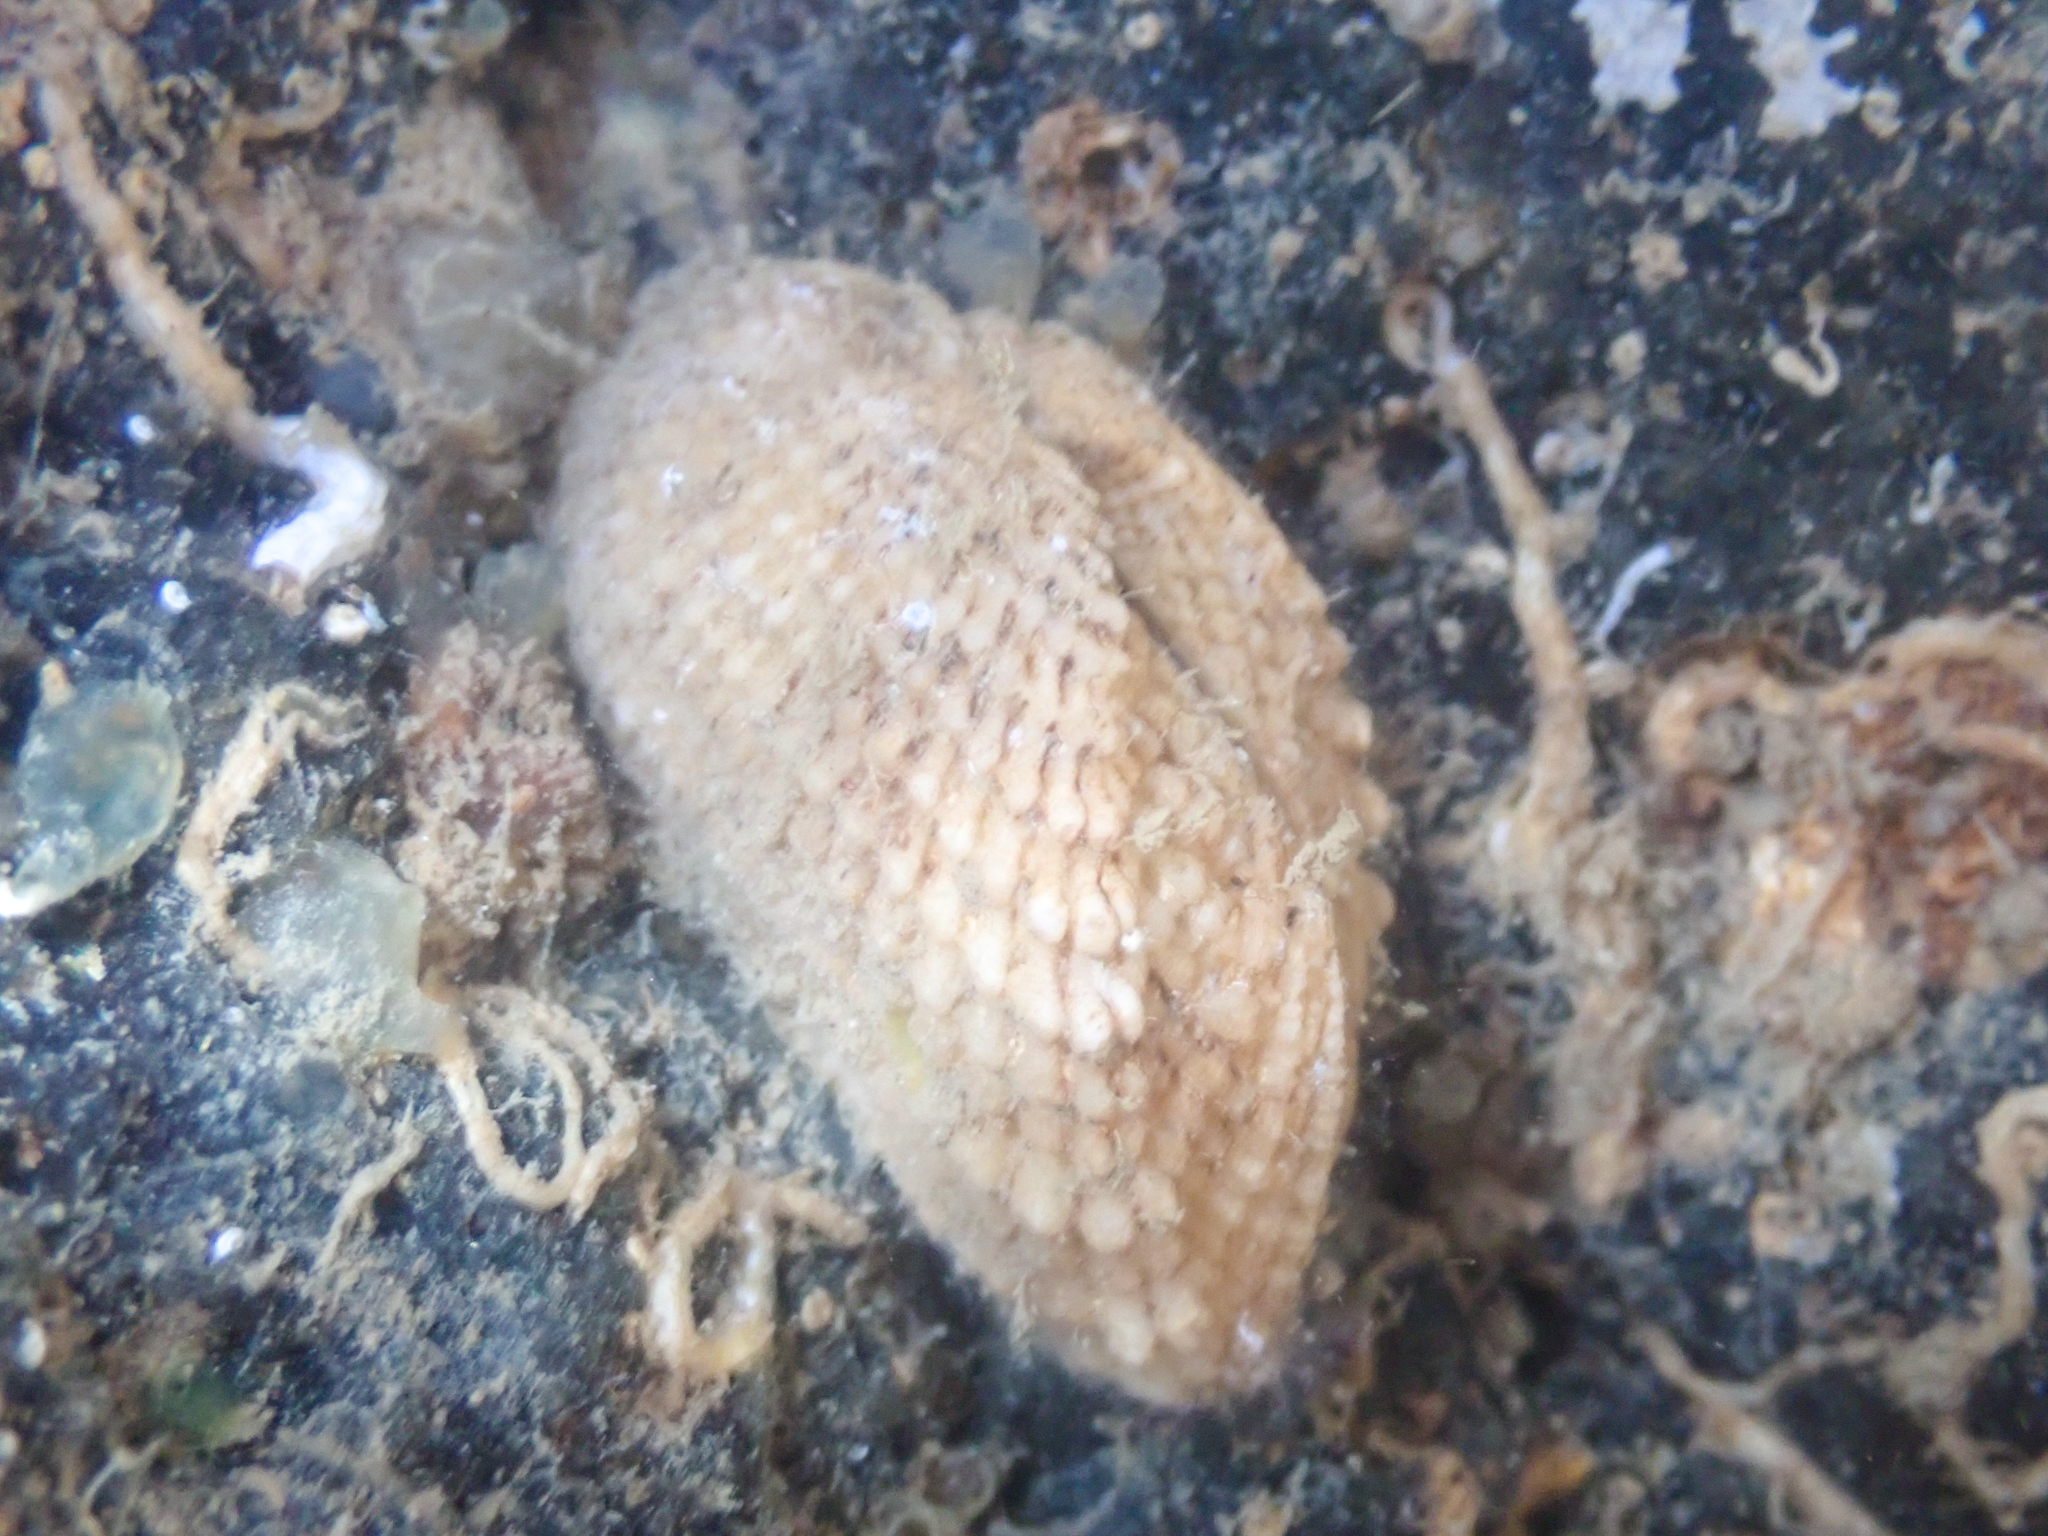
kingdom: Animalia
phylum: Mollusca
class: Bivalvia
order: Arcida
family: Arcidae
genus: Acar
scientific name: Acar bailyi
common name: Miniature ark
